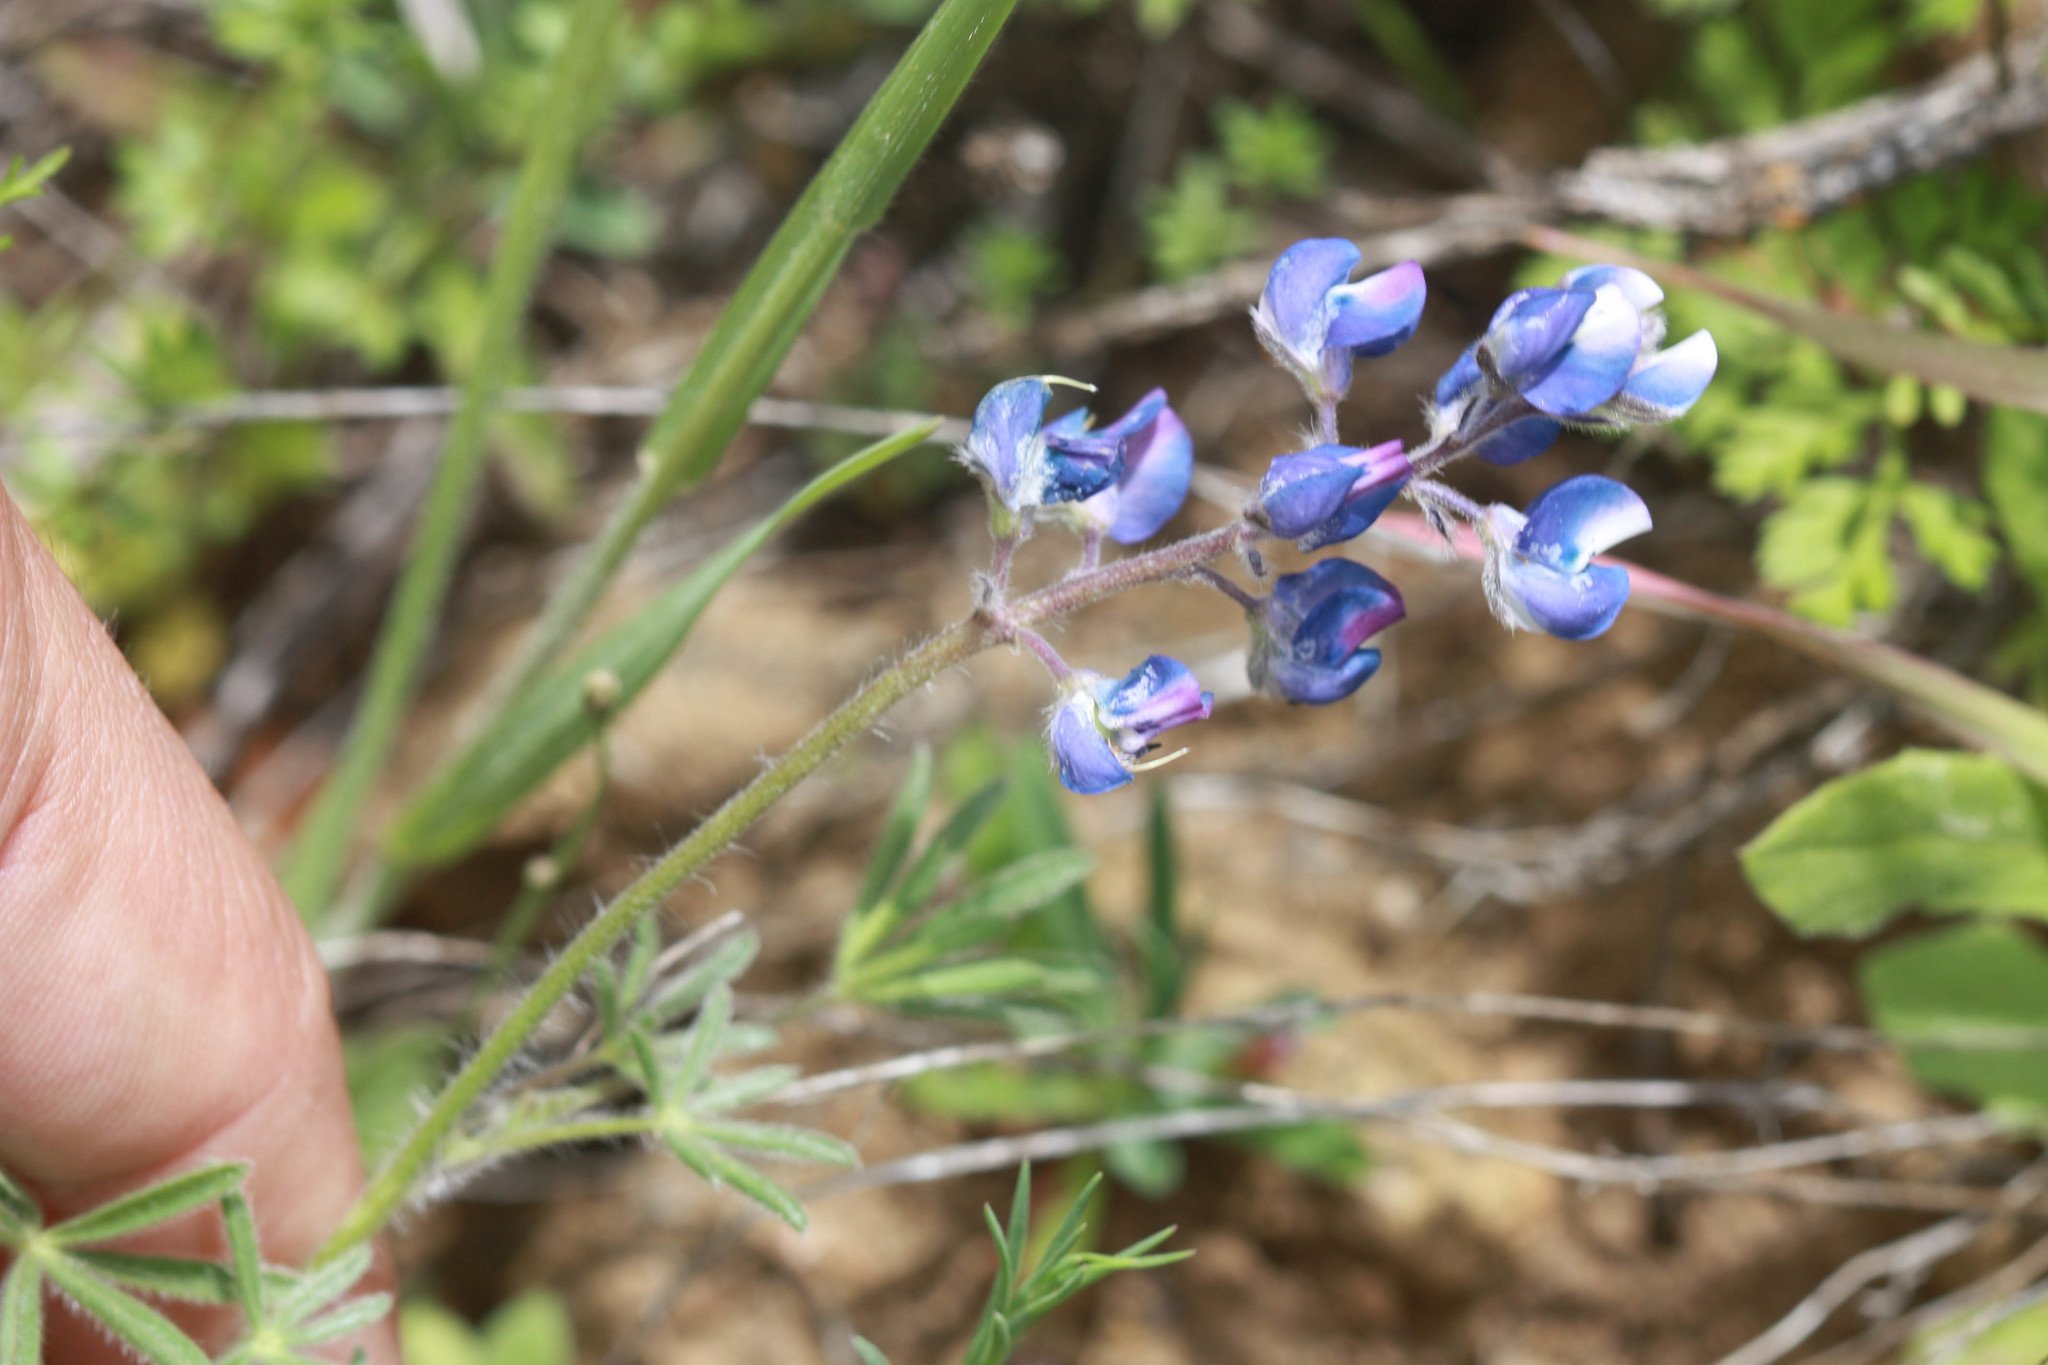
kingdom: Plantae
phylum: Tracheophyta
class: Magnoliopsida
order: Fabales
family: Fabaceae
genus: Lupinus
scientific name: Lupinus bicolor
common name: Miniature lupine
